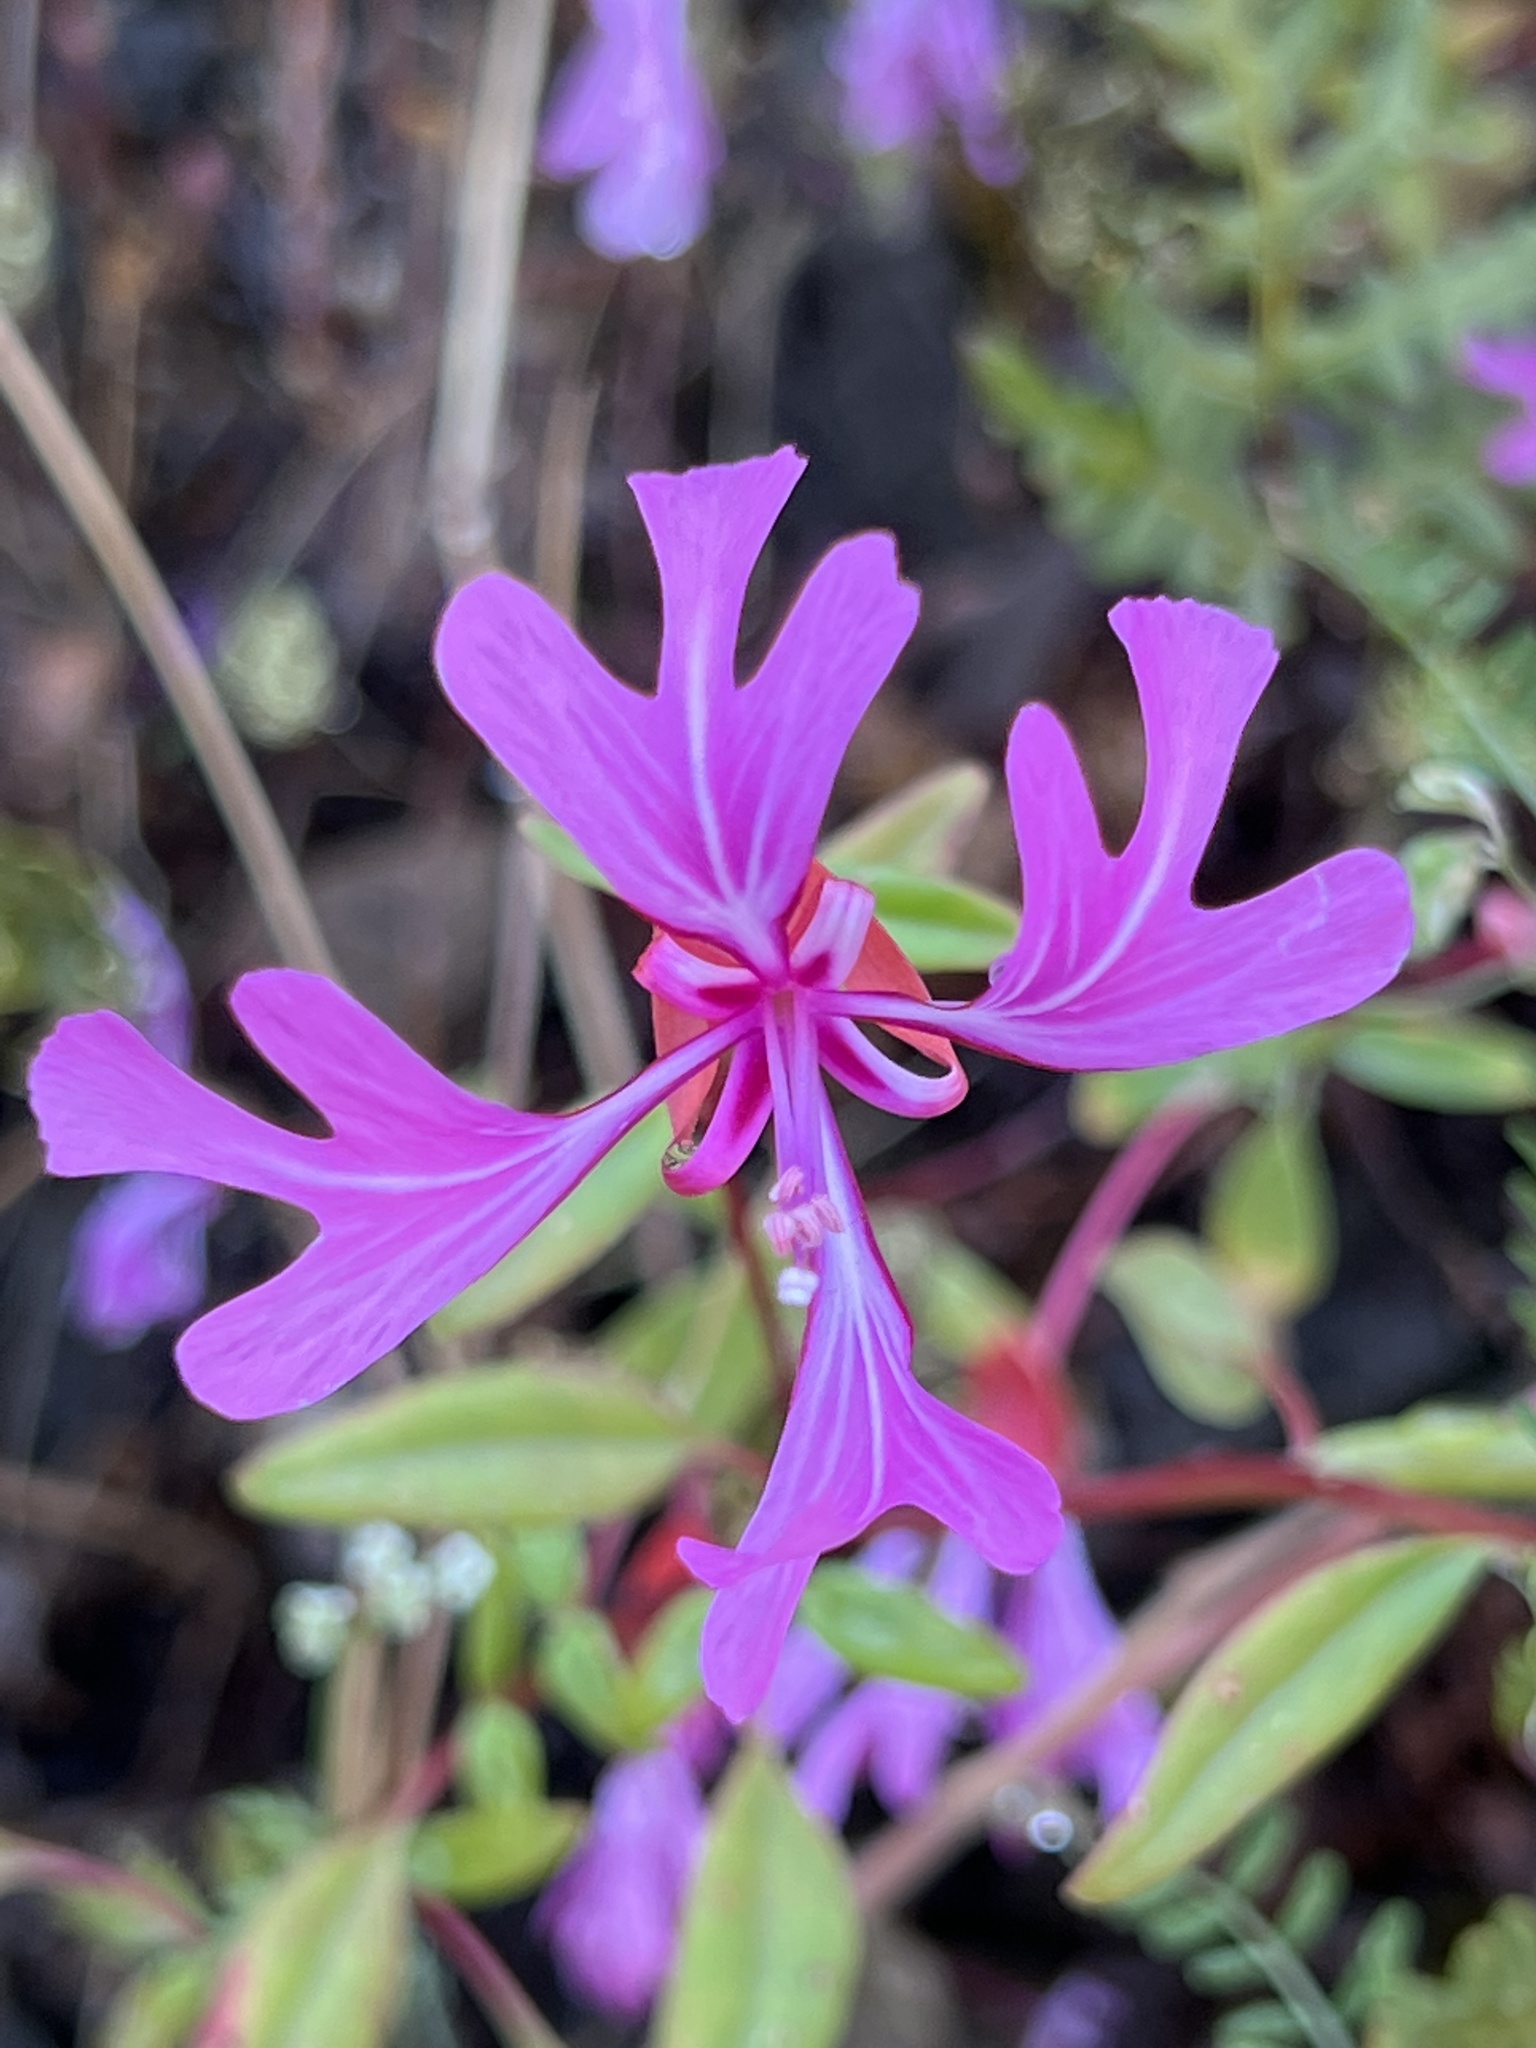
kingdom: Plantae
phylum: Tracheophyta
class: Magnoliopsida
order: Myrtales
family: Onagraceae
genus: Clarkia
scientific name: Clarkia concinna
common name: Red-ribbons
